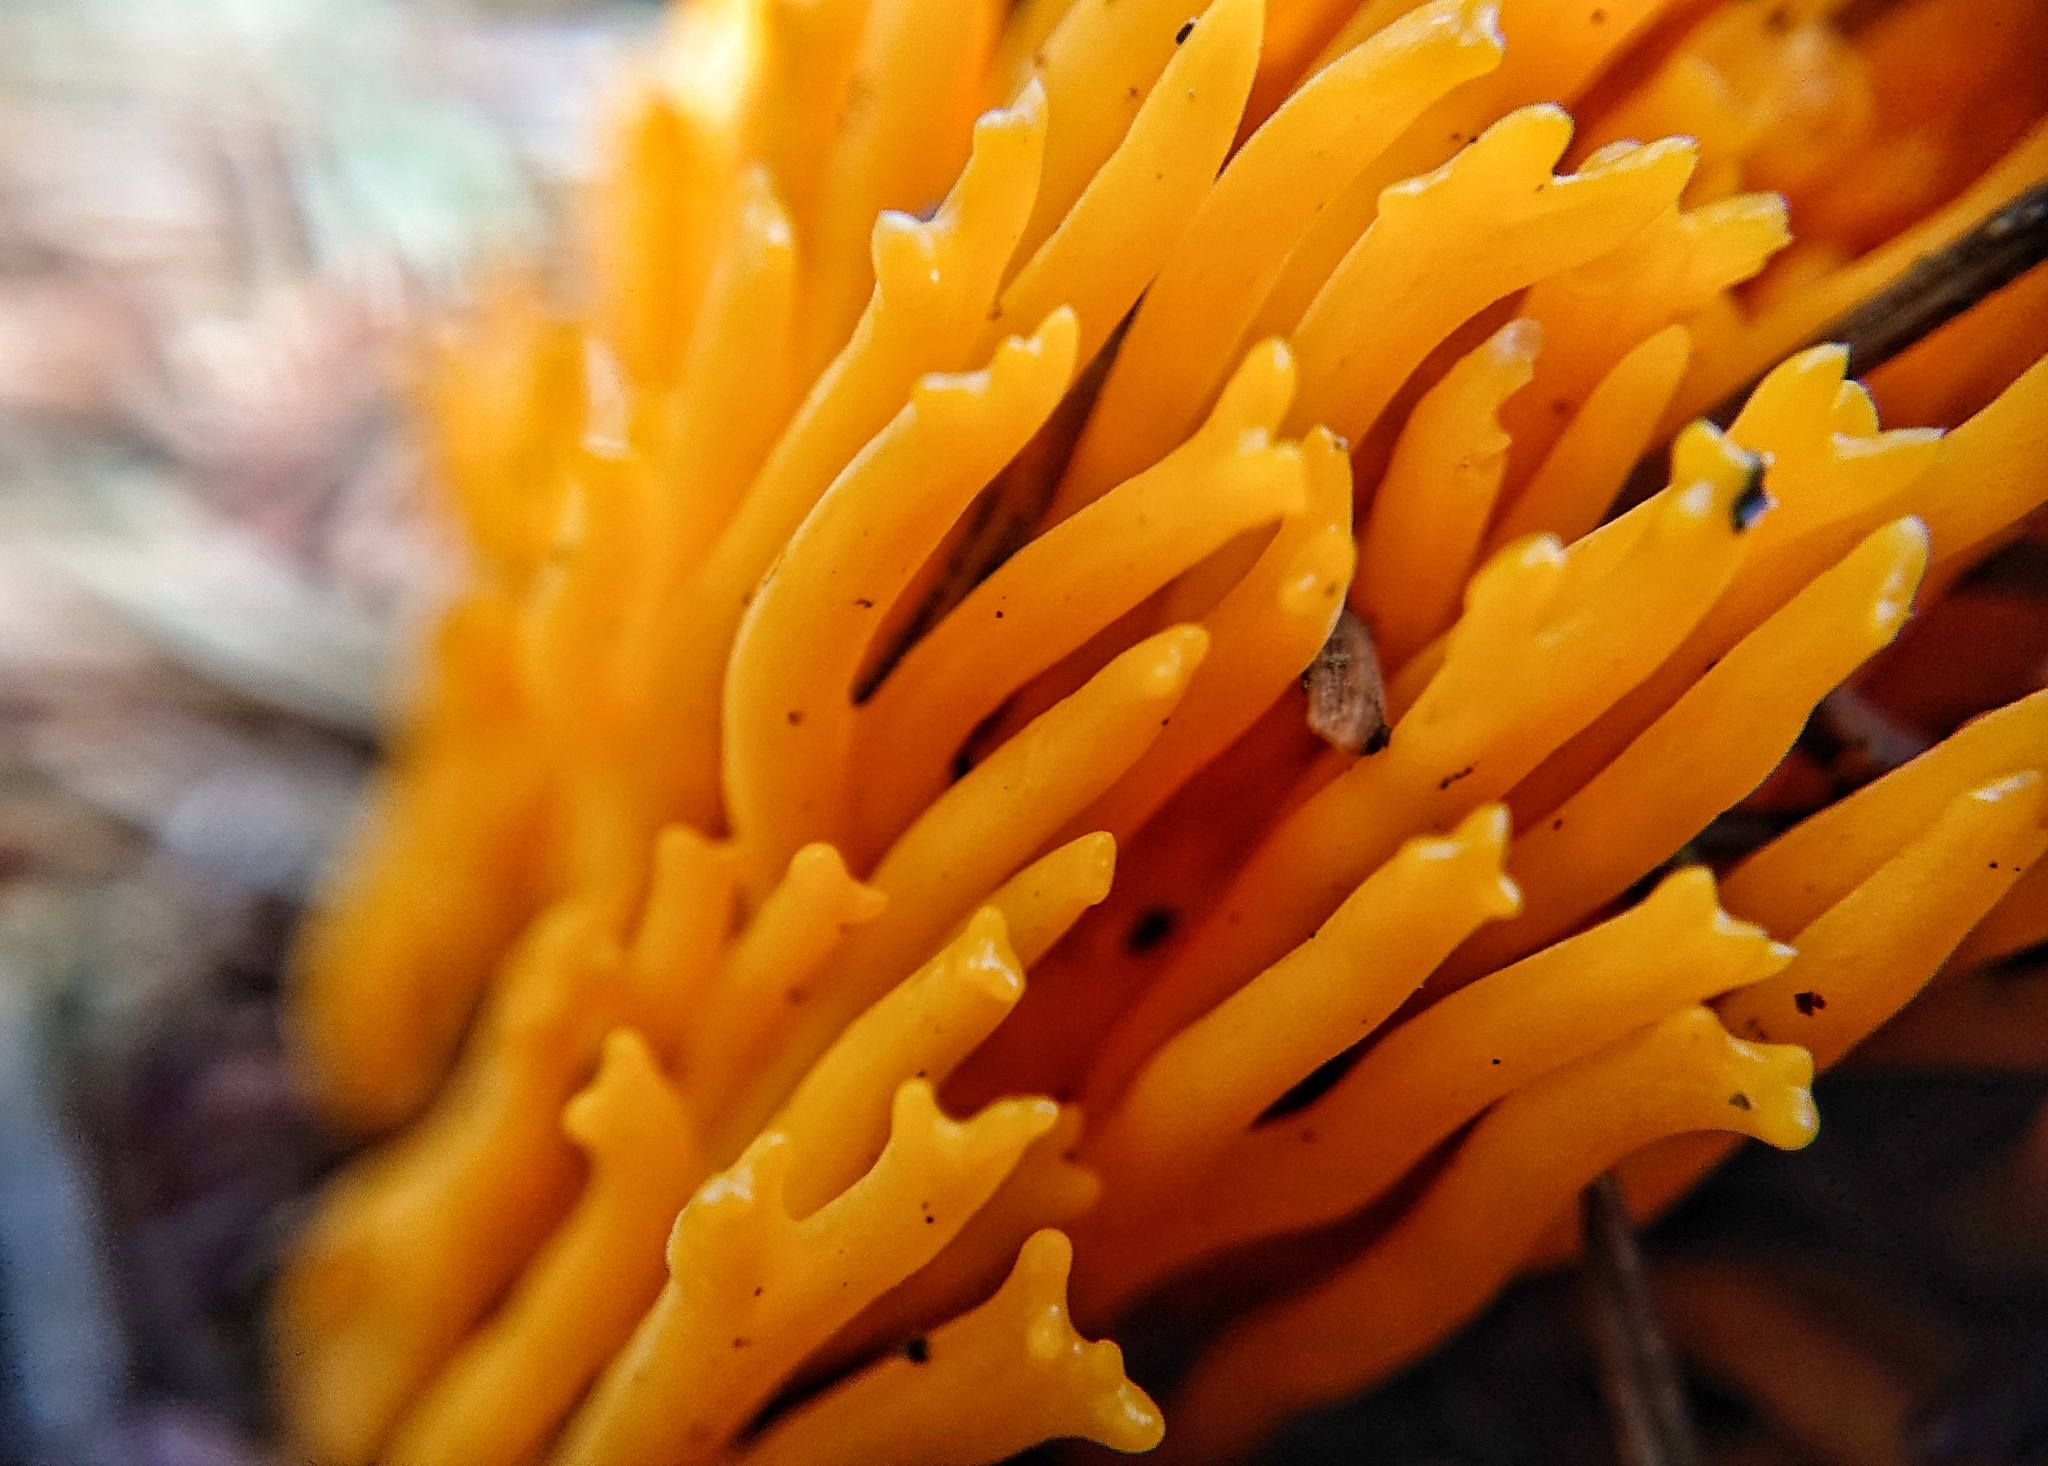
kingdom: Fungi
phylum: Basidiomycota
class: Dacrymycetes
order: Dacrymycetales
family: Dacrymycetaceae
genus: Calocera
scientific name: Calocera viscosa
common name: Yellow stagshorn
